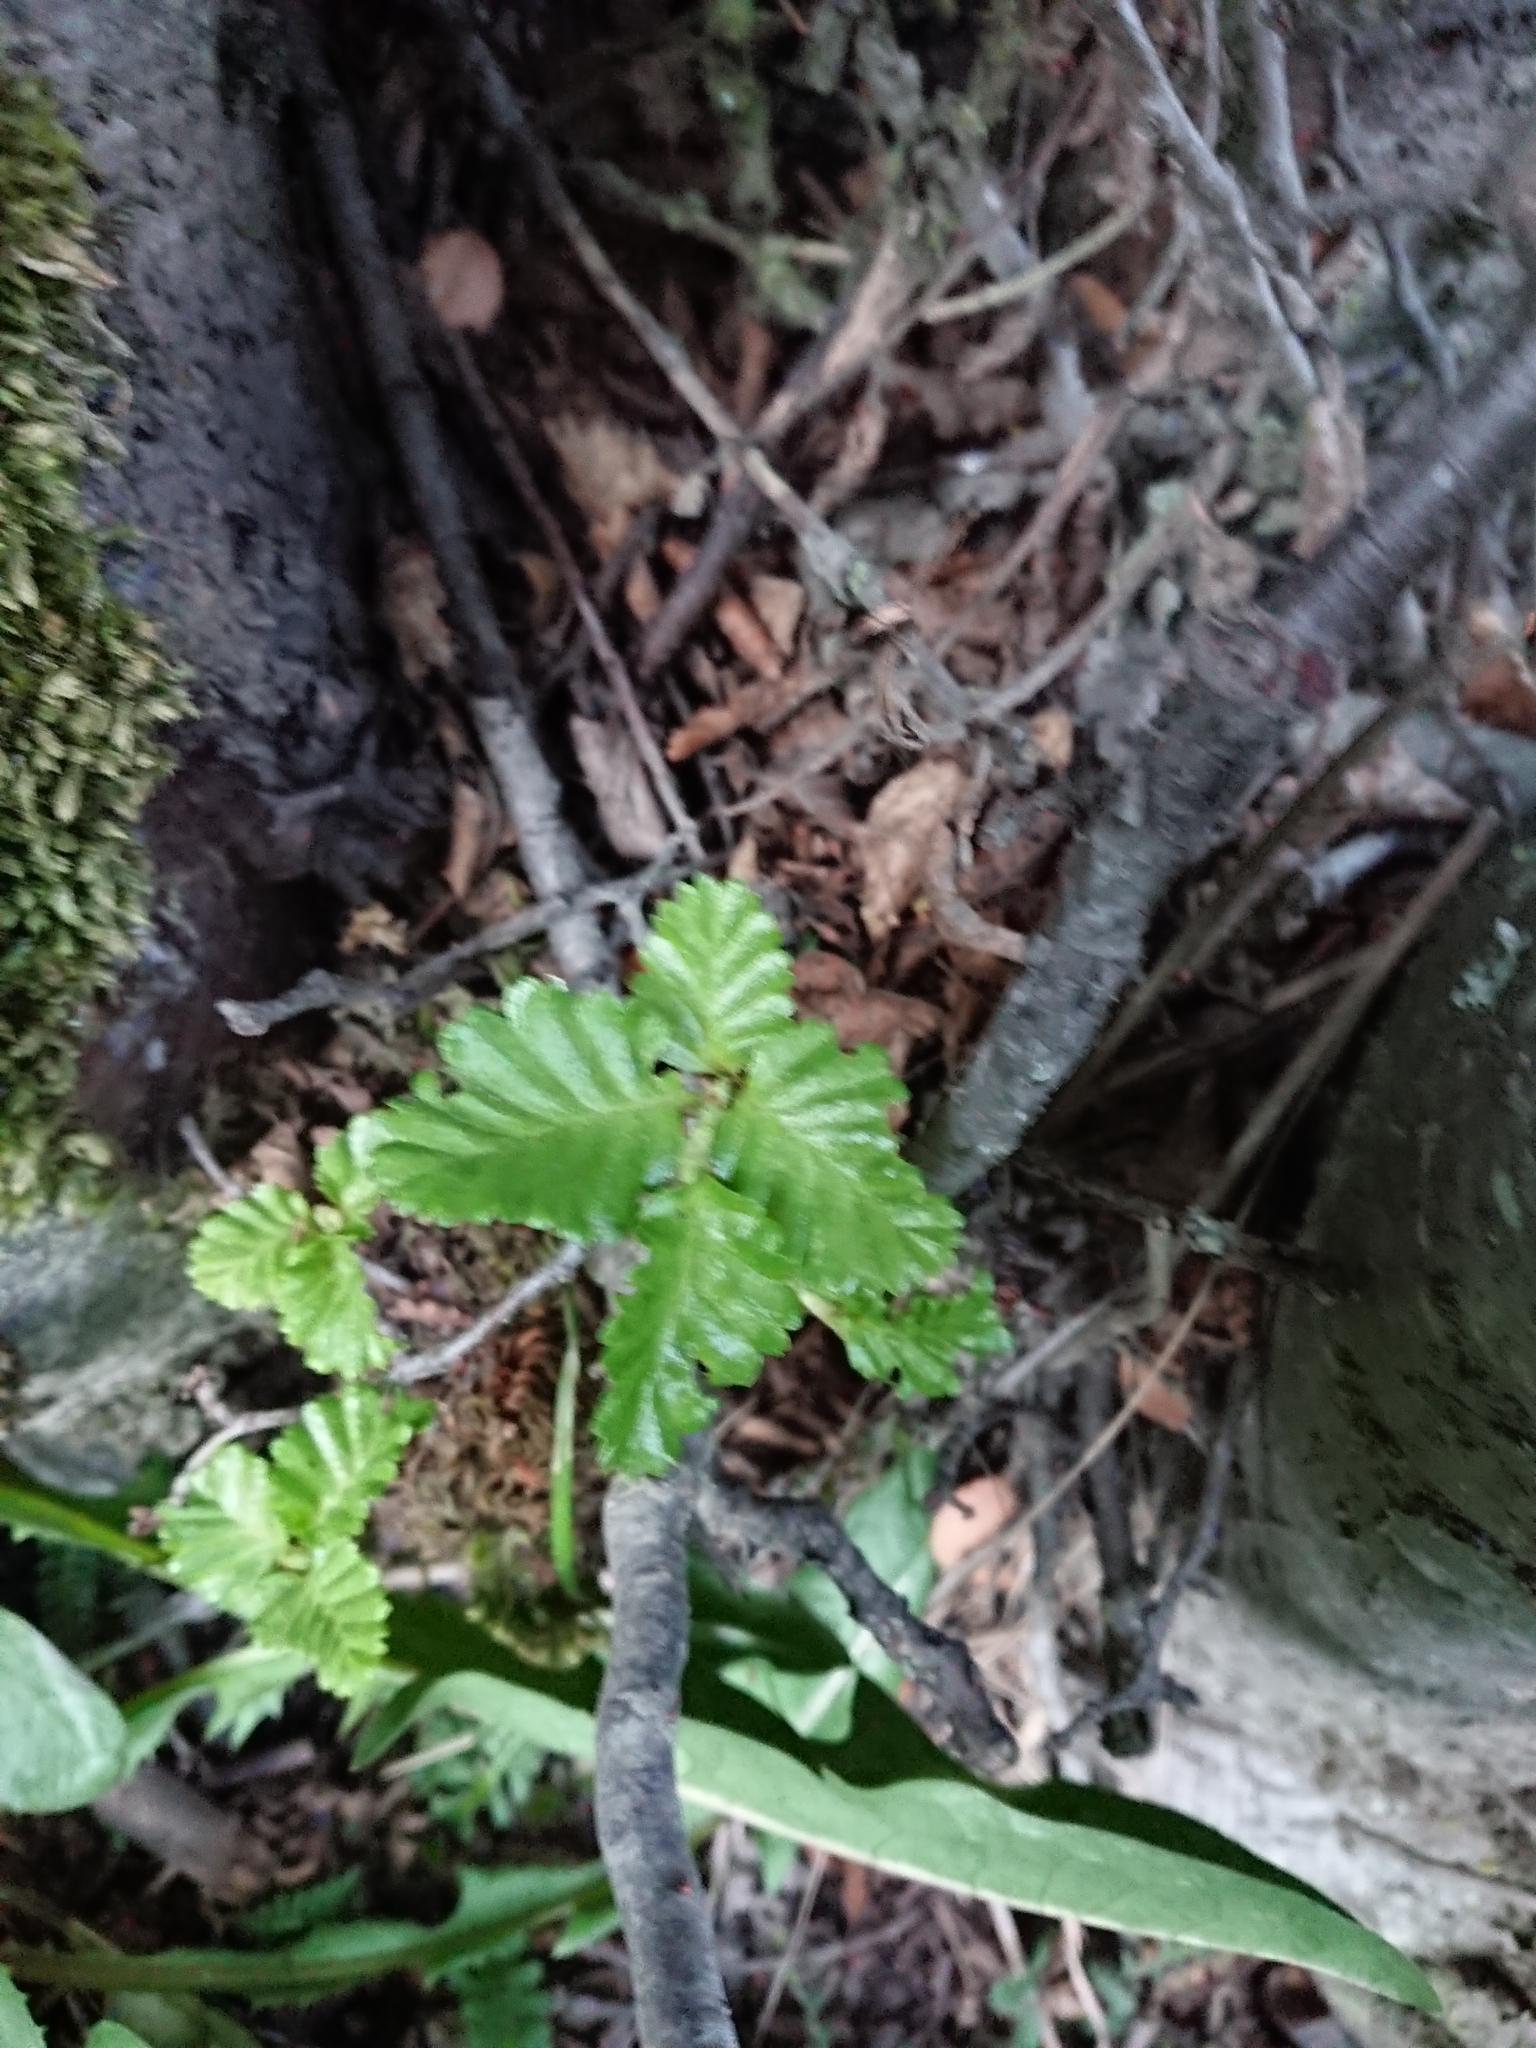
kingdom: Plantae
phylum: Tracheophyta
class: Magnoliopsida
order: Fagales
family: Nothofagaceae
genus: Nothofagus
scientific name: Nothofagus pumilio
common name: Lenga beech
